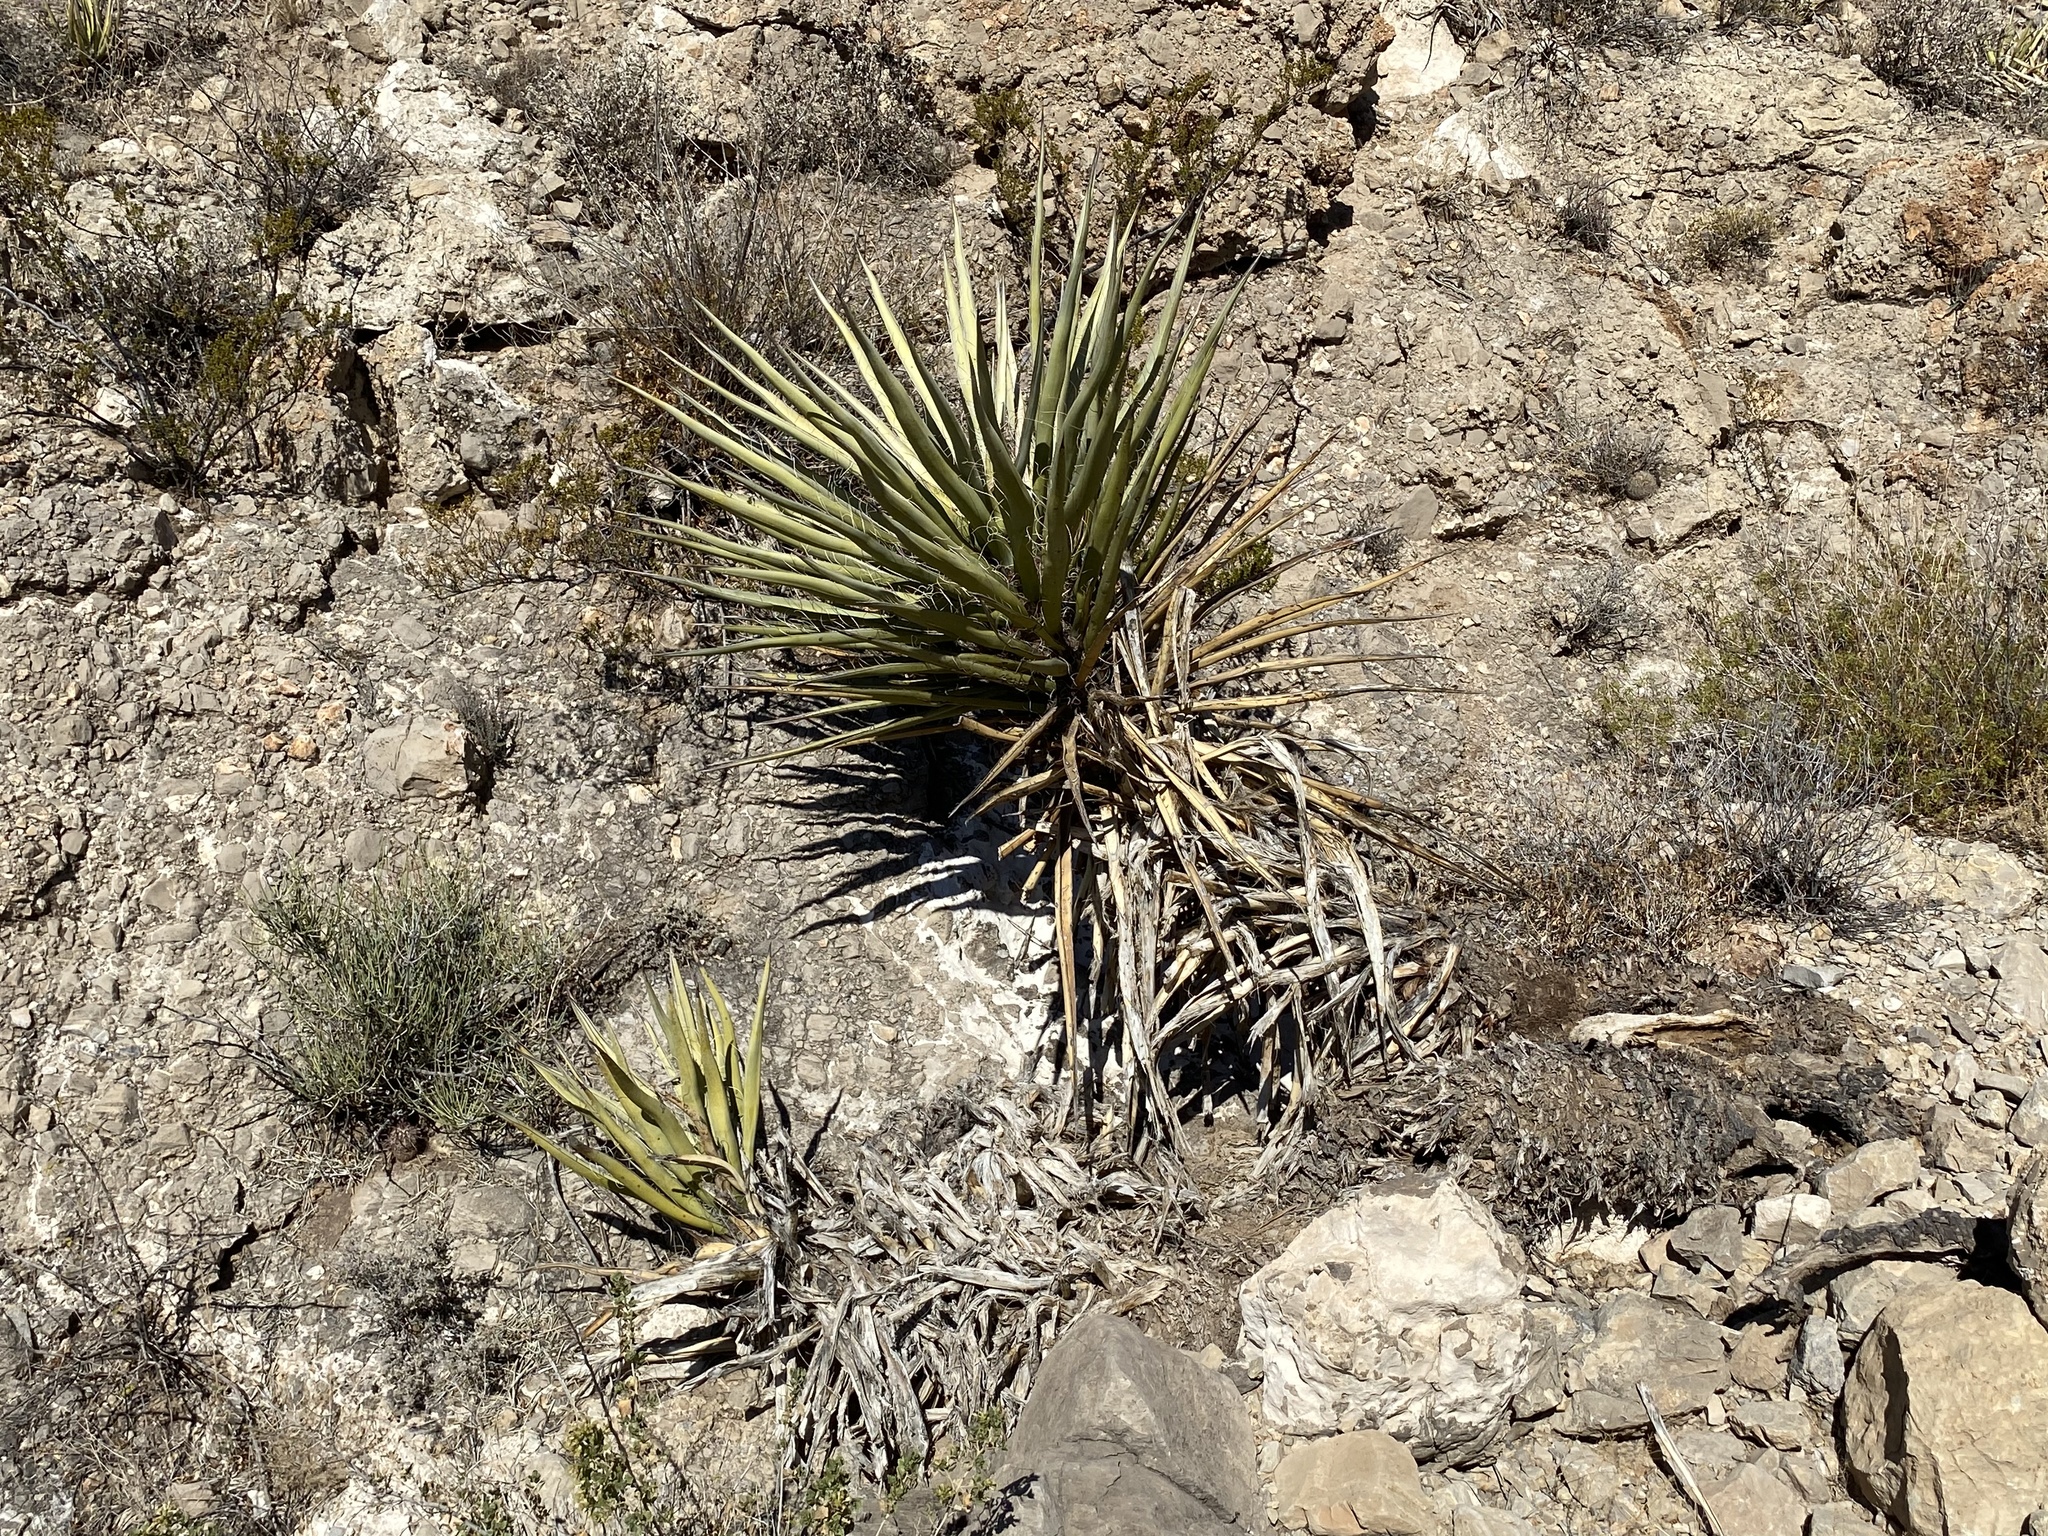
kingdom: Plantae
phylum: Tracheophyta
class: Liliopsida
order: Asparagales
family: Asparagaceae
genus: Yucca
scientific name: Yucca treculiana
